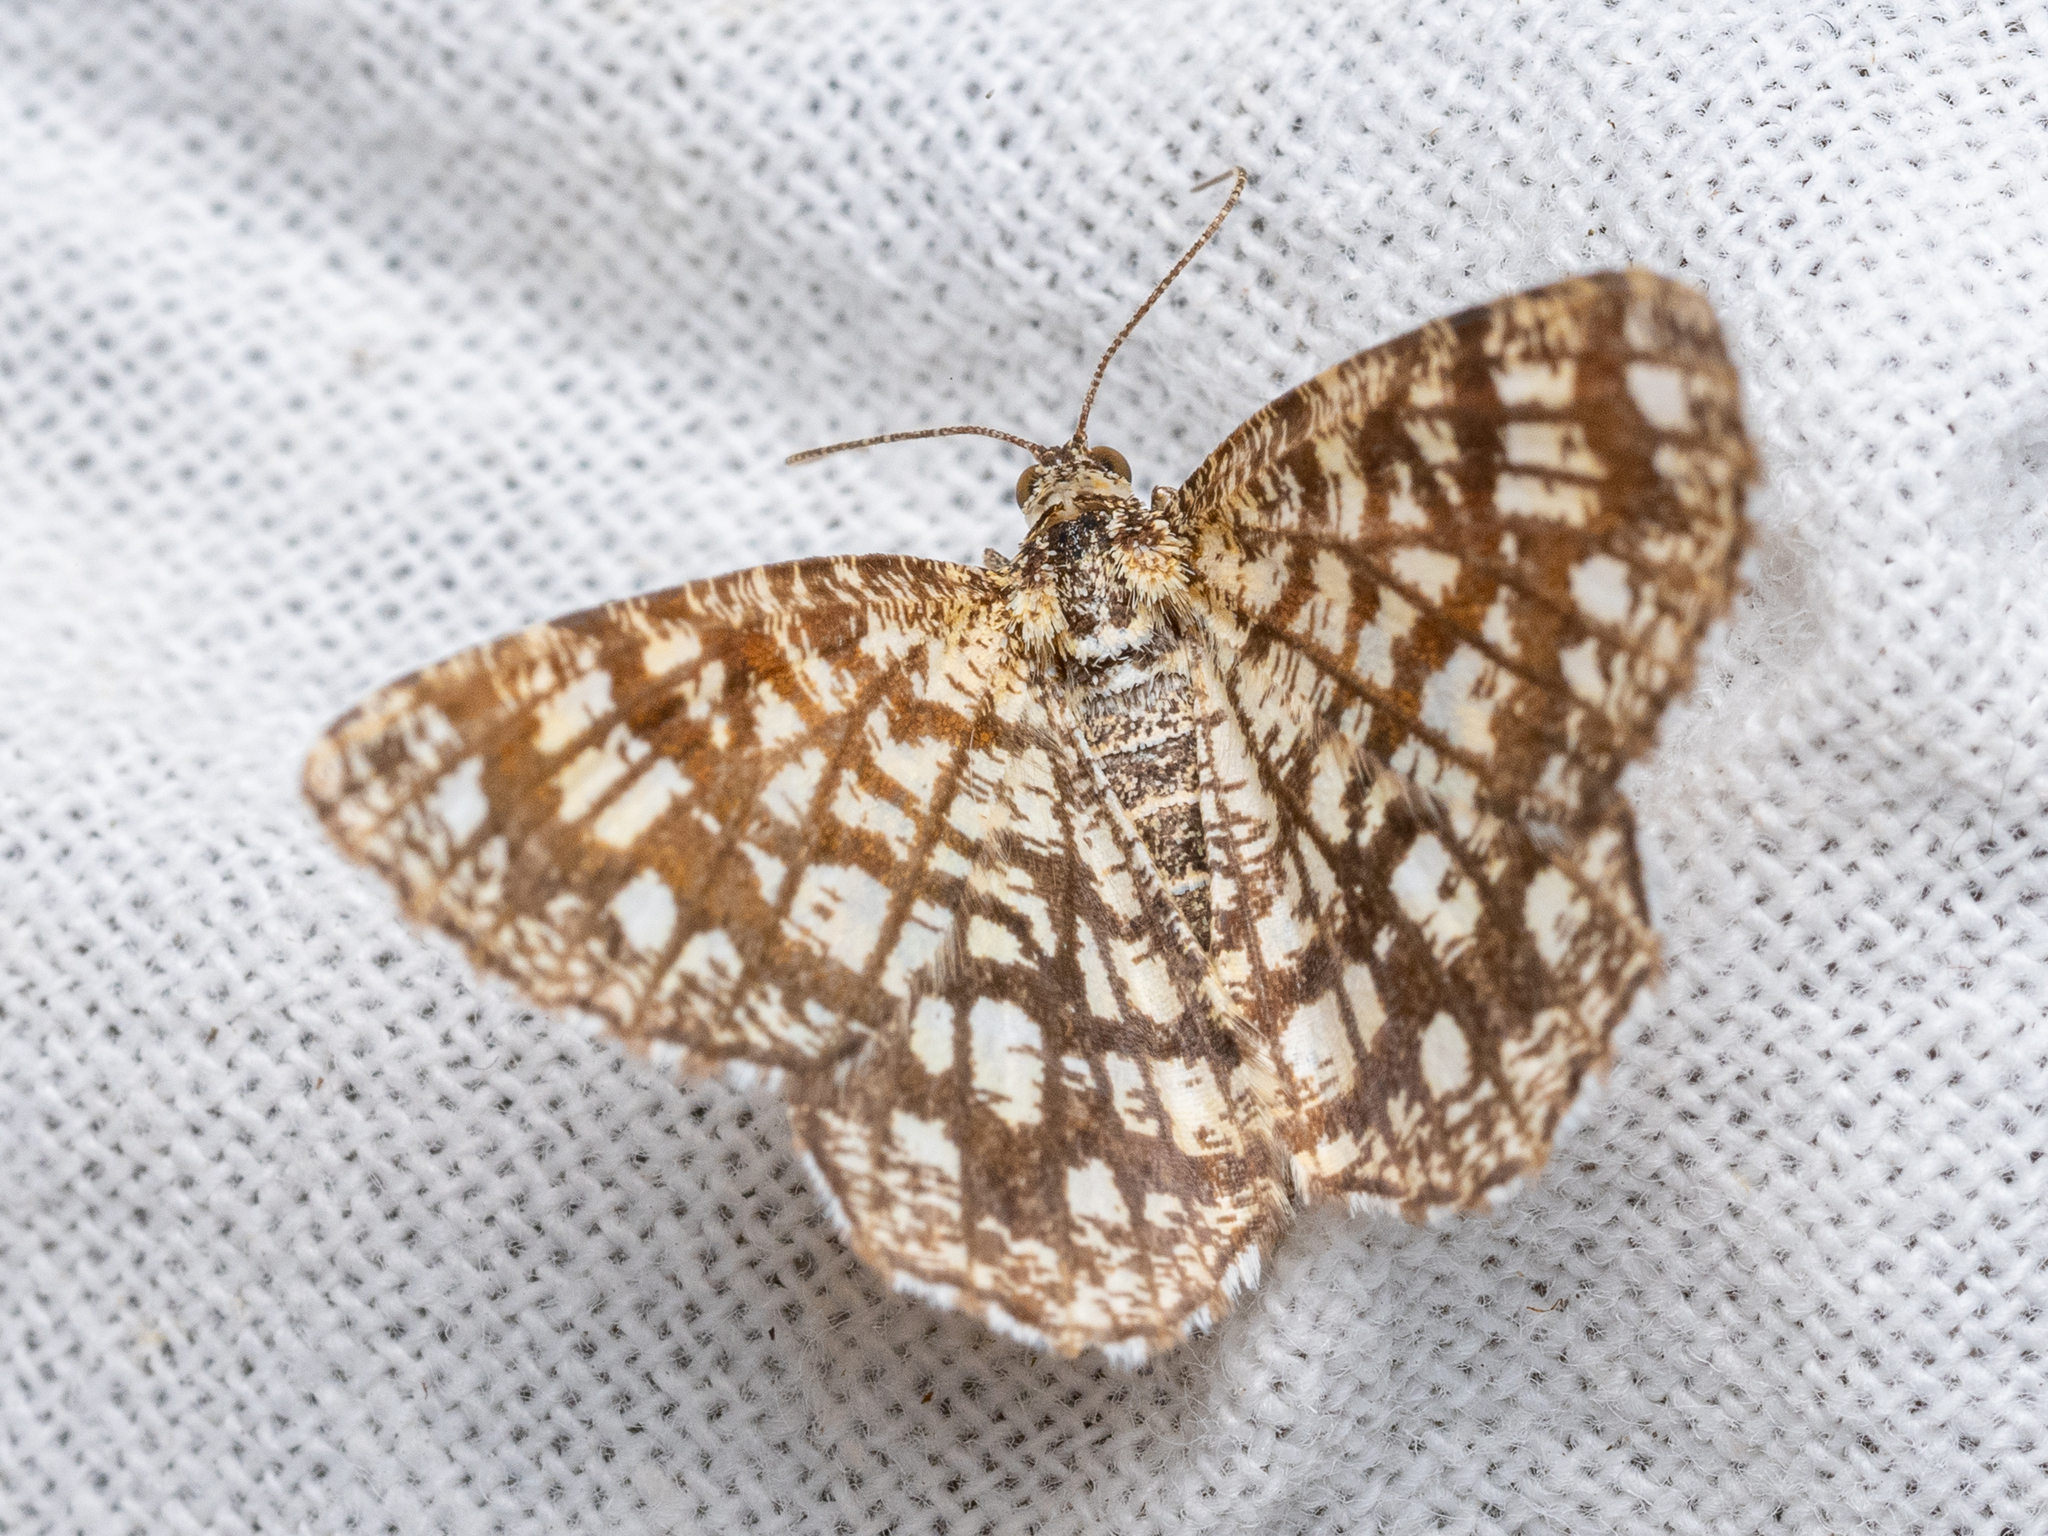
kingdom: Animalia
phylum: Arthropoda
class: Insecta
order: Lepidoptera
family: Geometridae
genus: Chiasmia
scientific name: Chiasmia clathrata
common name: Latticed heath
